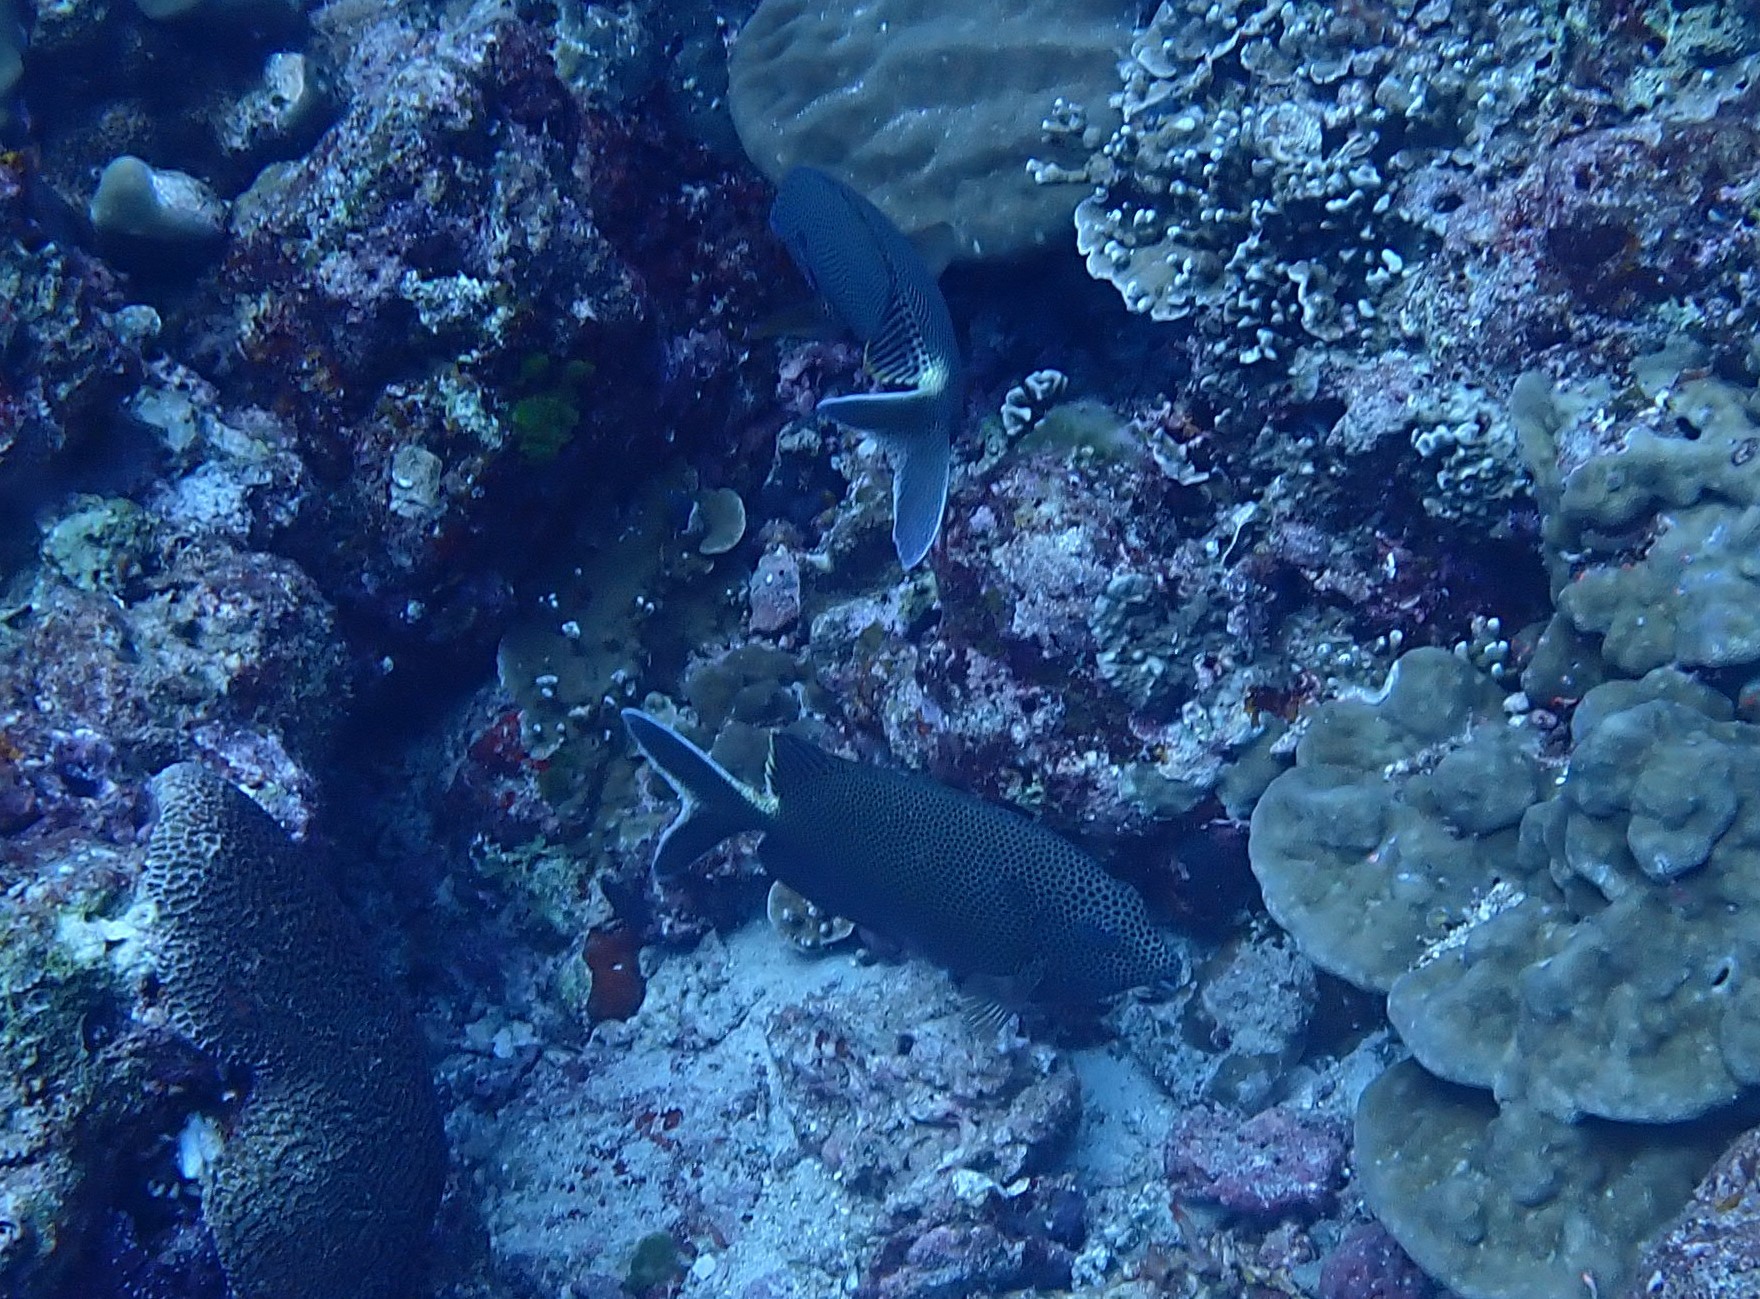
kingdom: Animalia
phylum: Chordata
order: Perciformes
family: Siganidae
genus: Siganus
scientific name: Siganus stellatus
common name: Brown-spotted spinefoot
